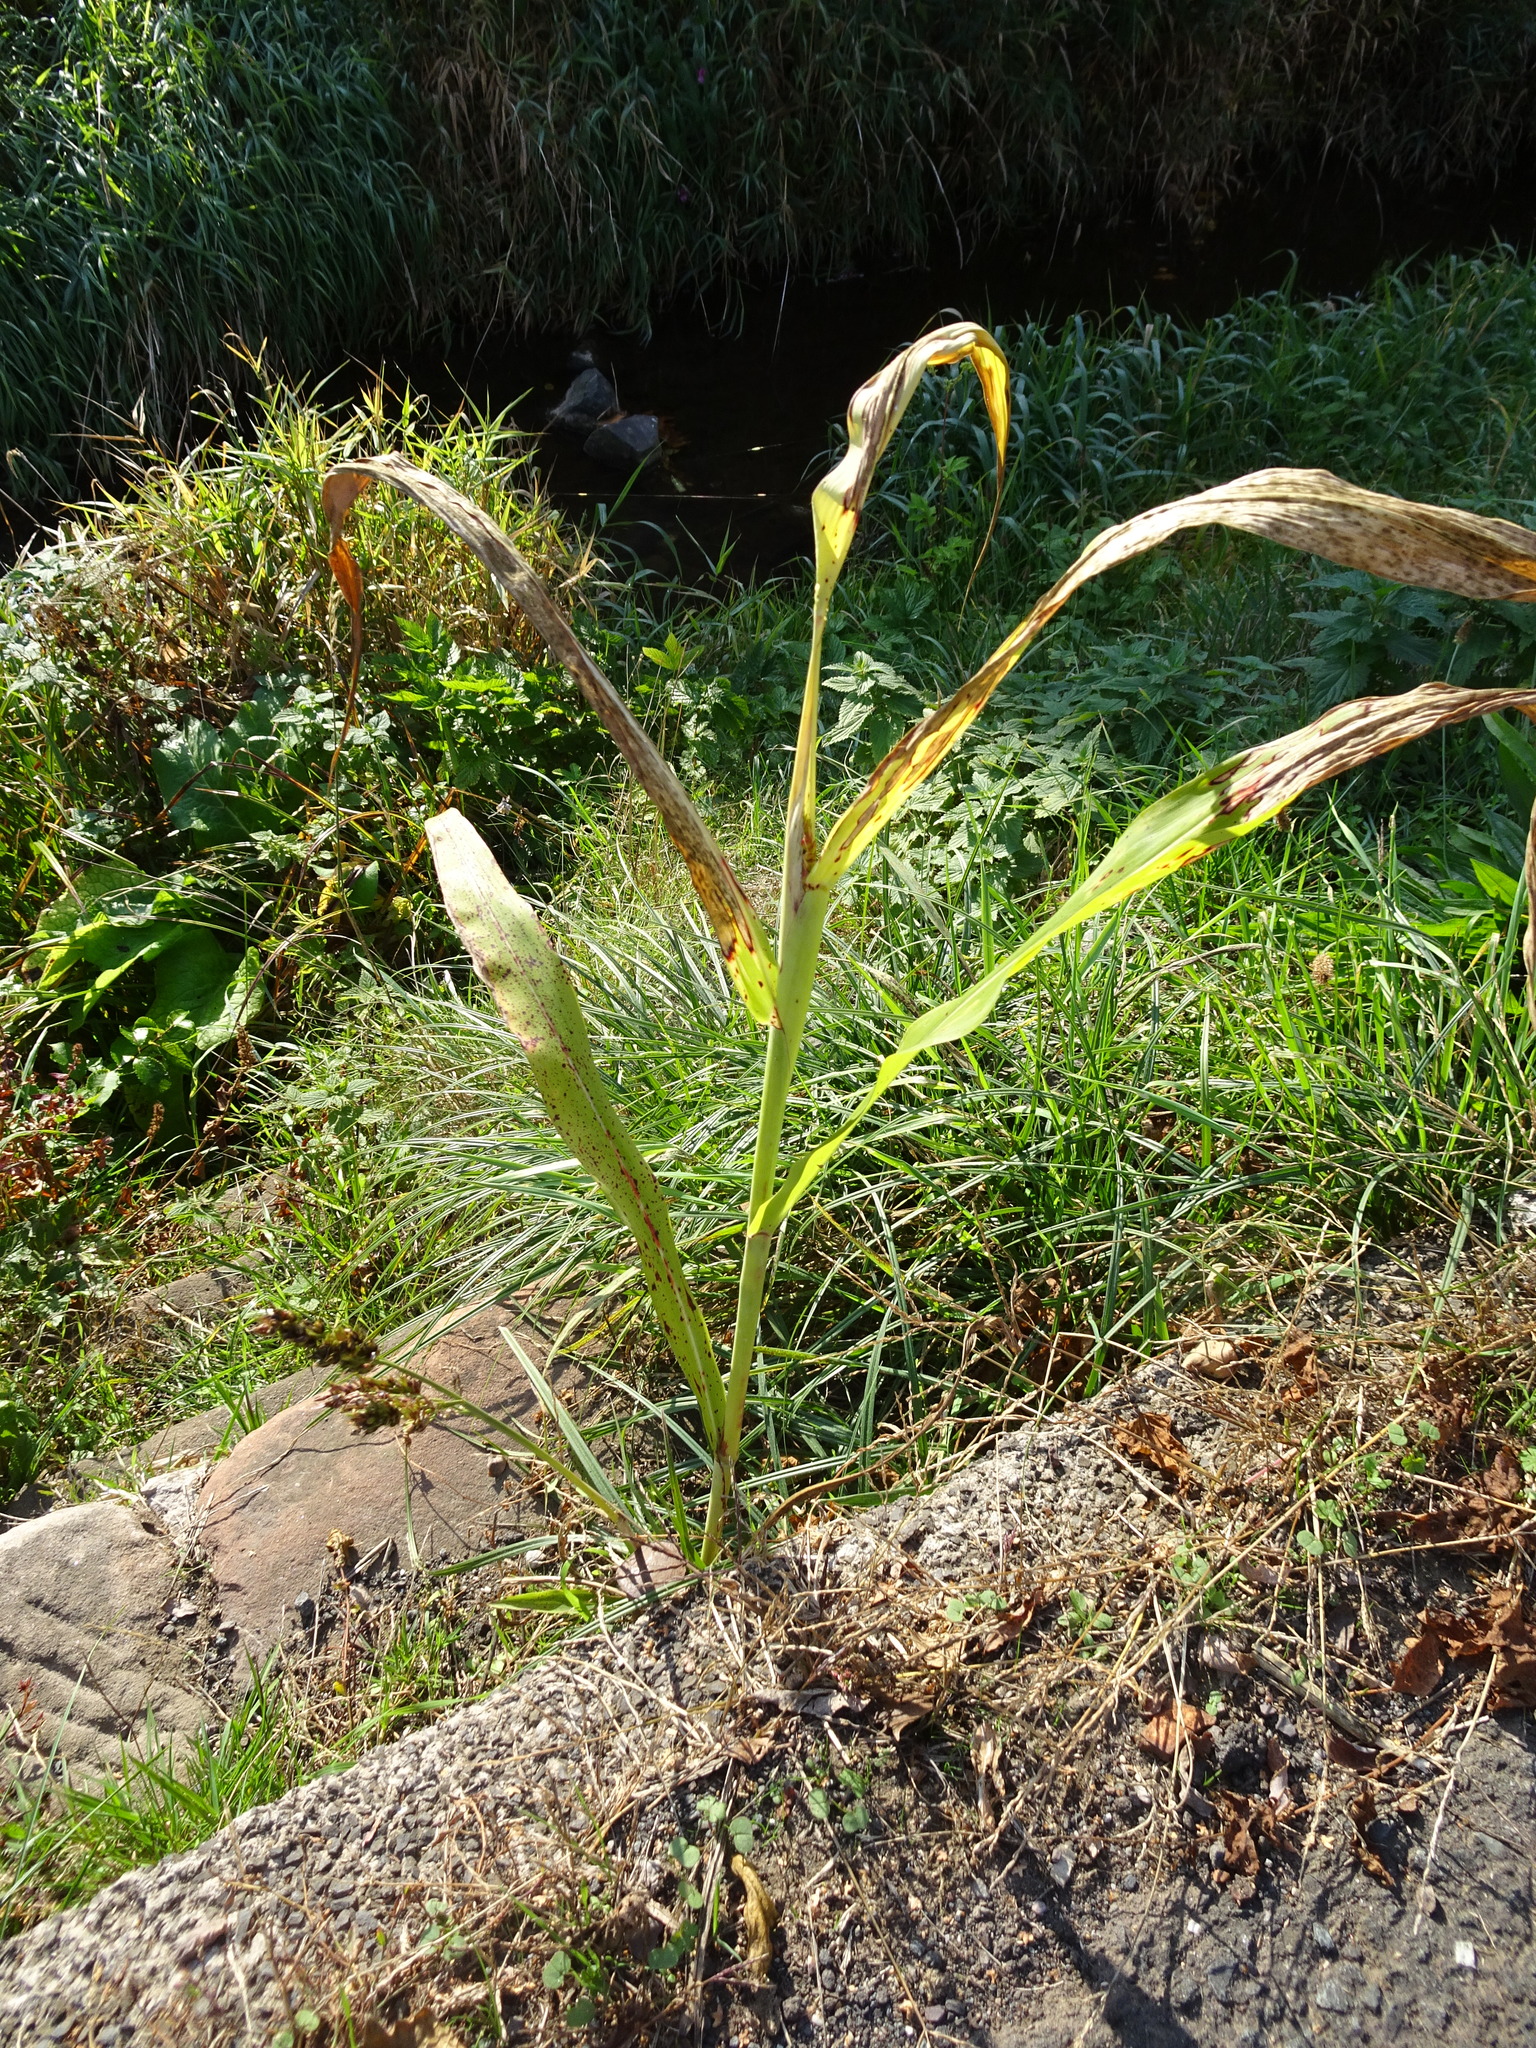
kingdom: Plantae
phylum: Tracheophyta
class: Liliopsida
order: Poales
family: Poaceae
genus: Echinochloa
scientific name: Echinochloa crus-galli
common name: Cockspur
